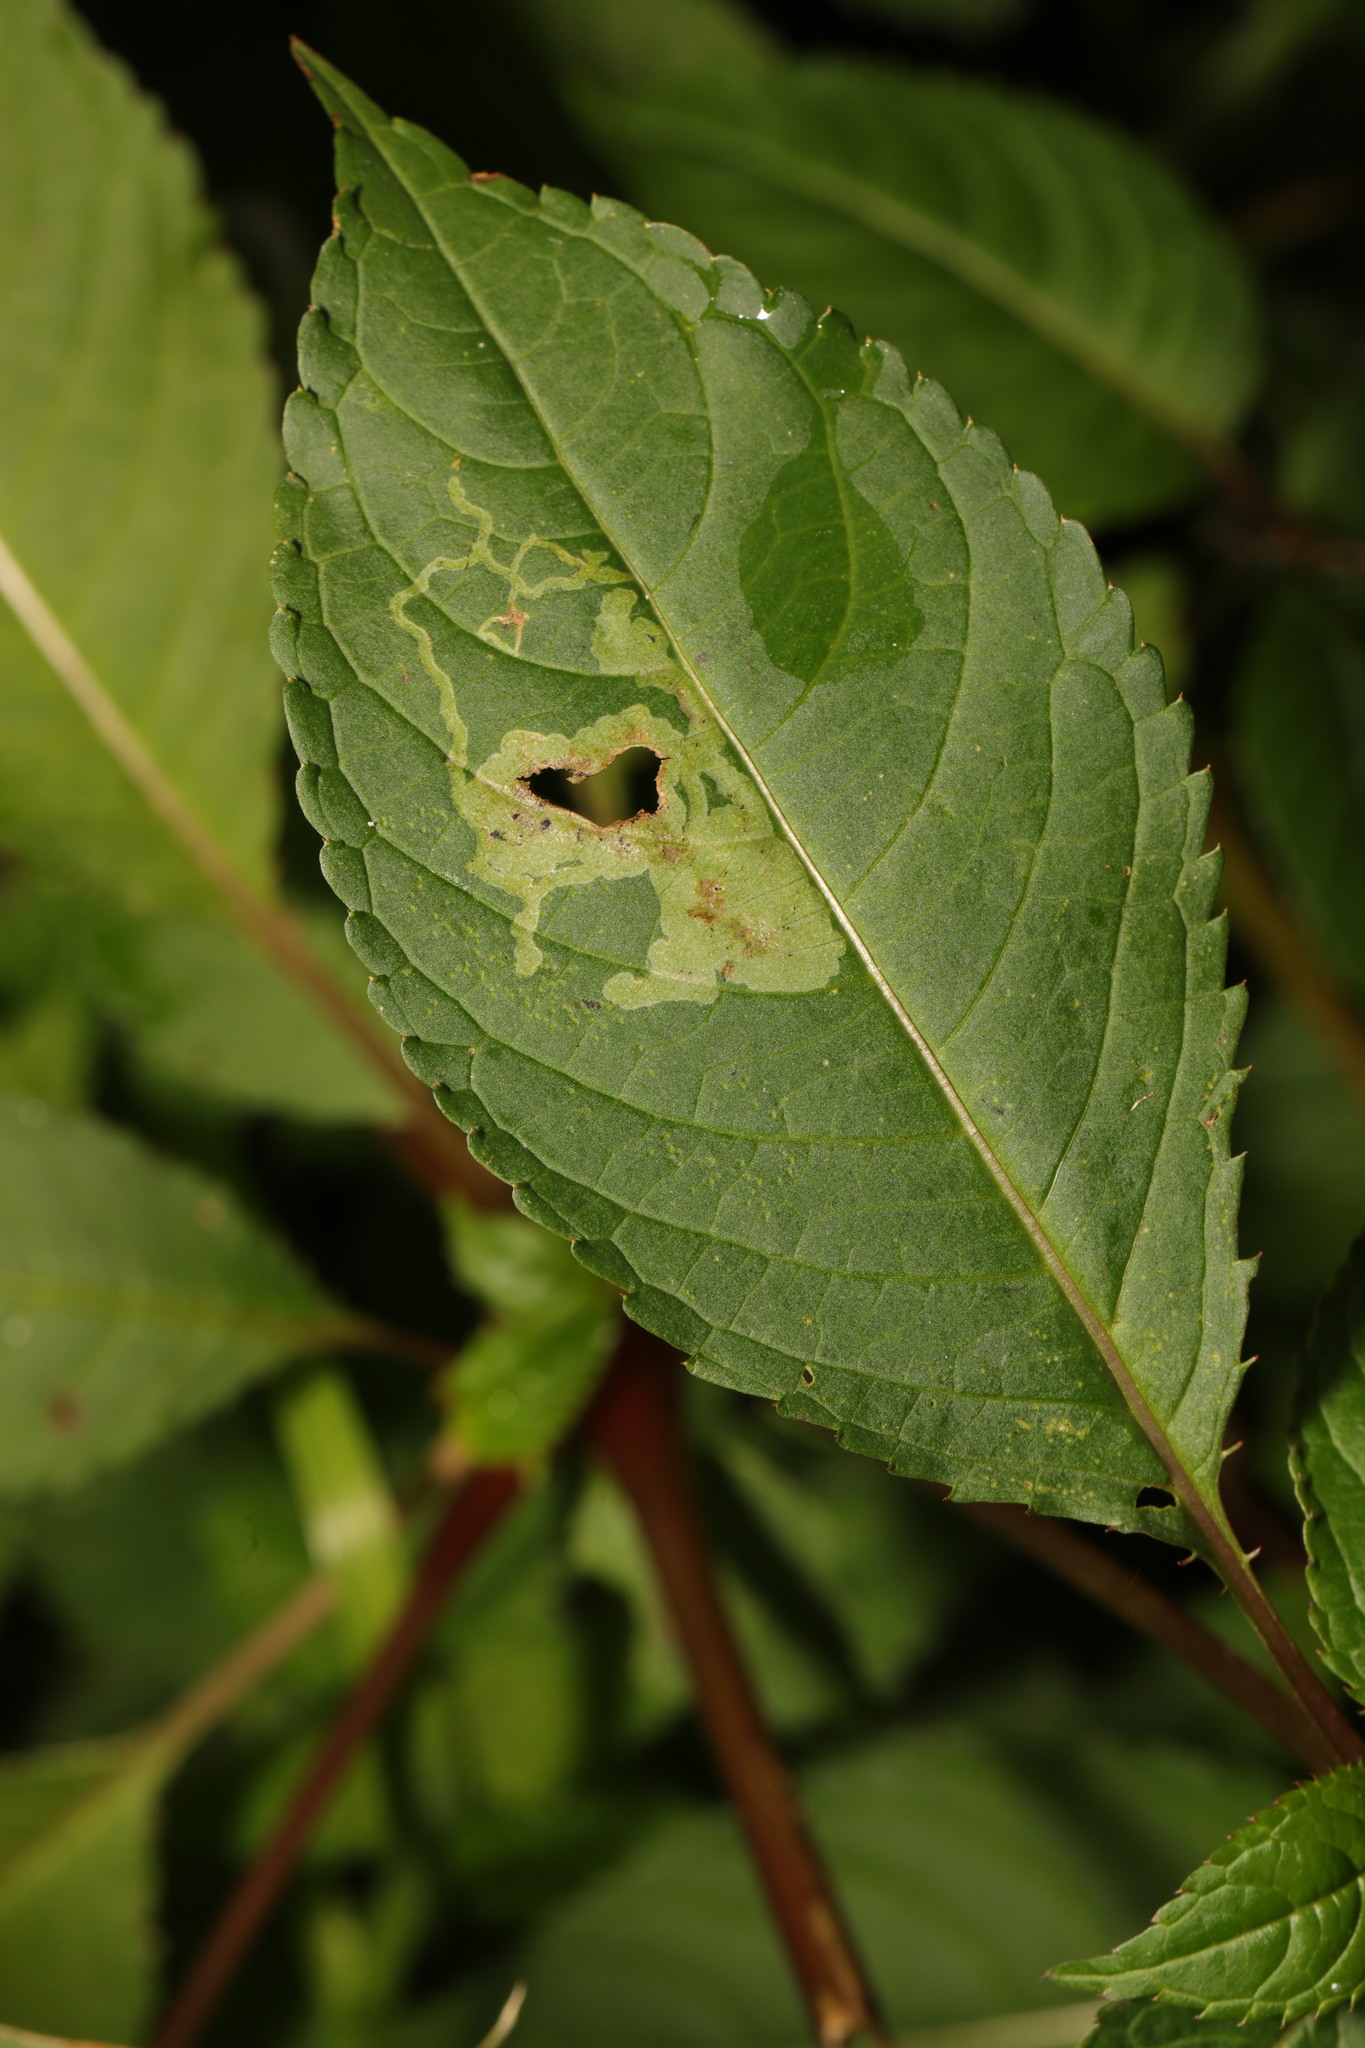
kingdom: Animalia
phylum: Arthropoda
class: Insecta
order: Diptera
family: Agromyzidae
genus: Phytoliriomyza
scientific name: Phytoliriomyza melampyga
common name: Jewelweed leaf-miner fly
